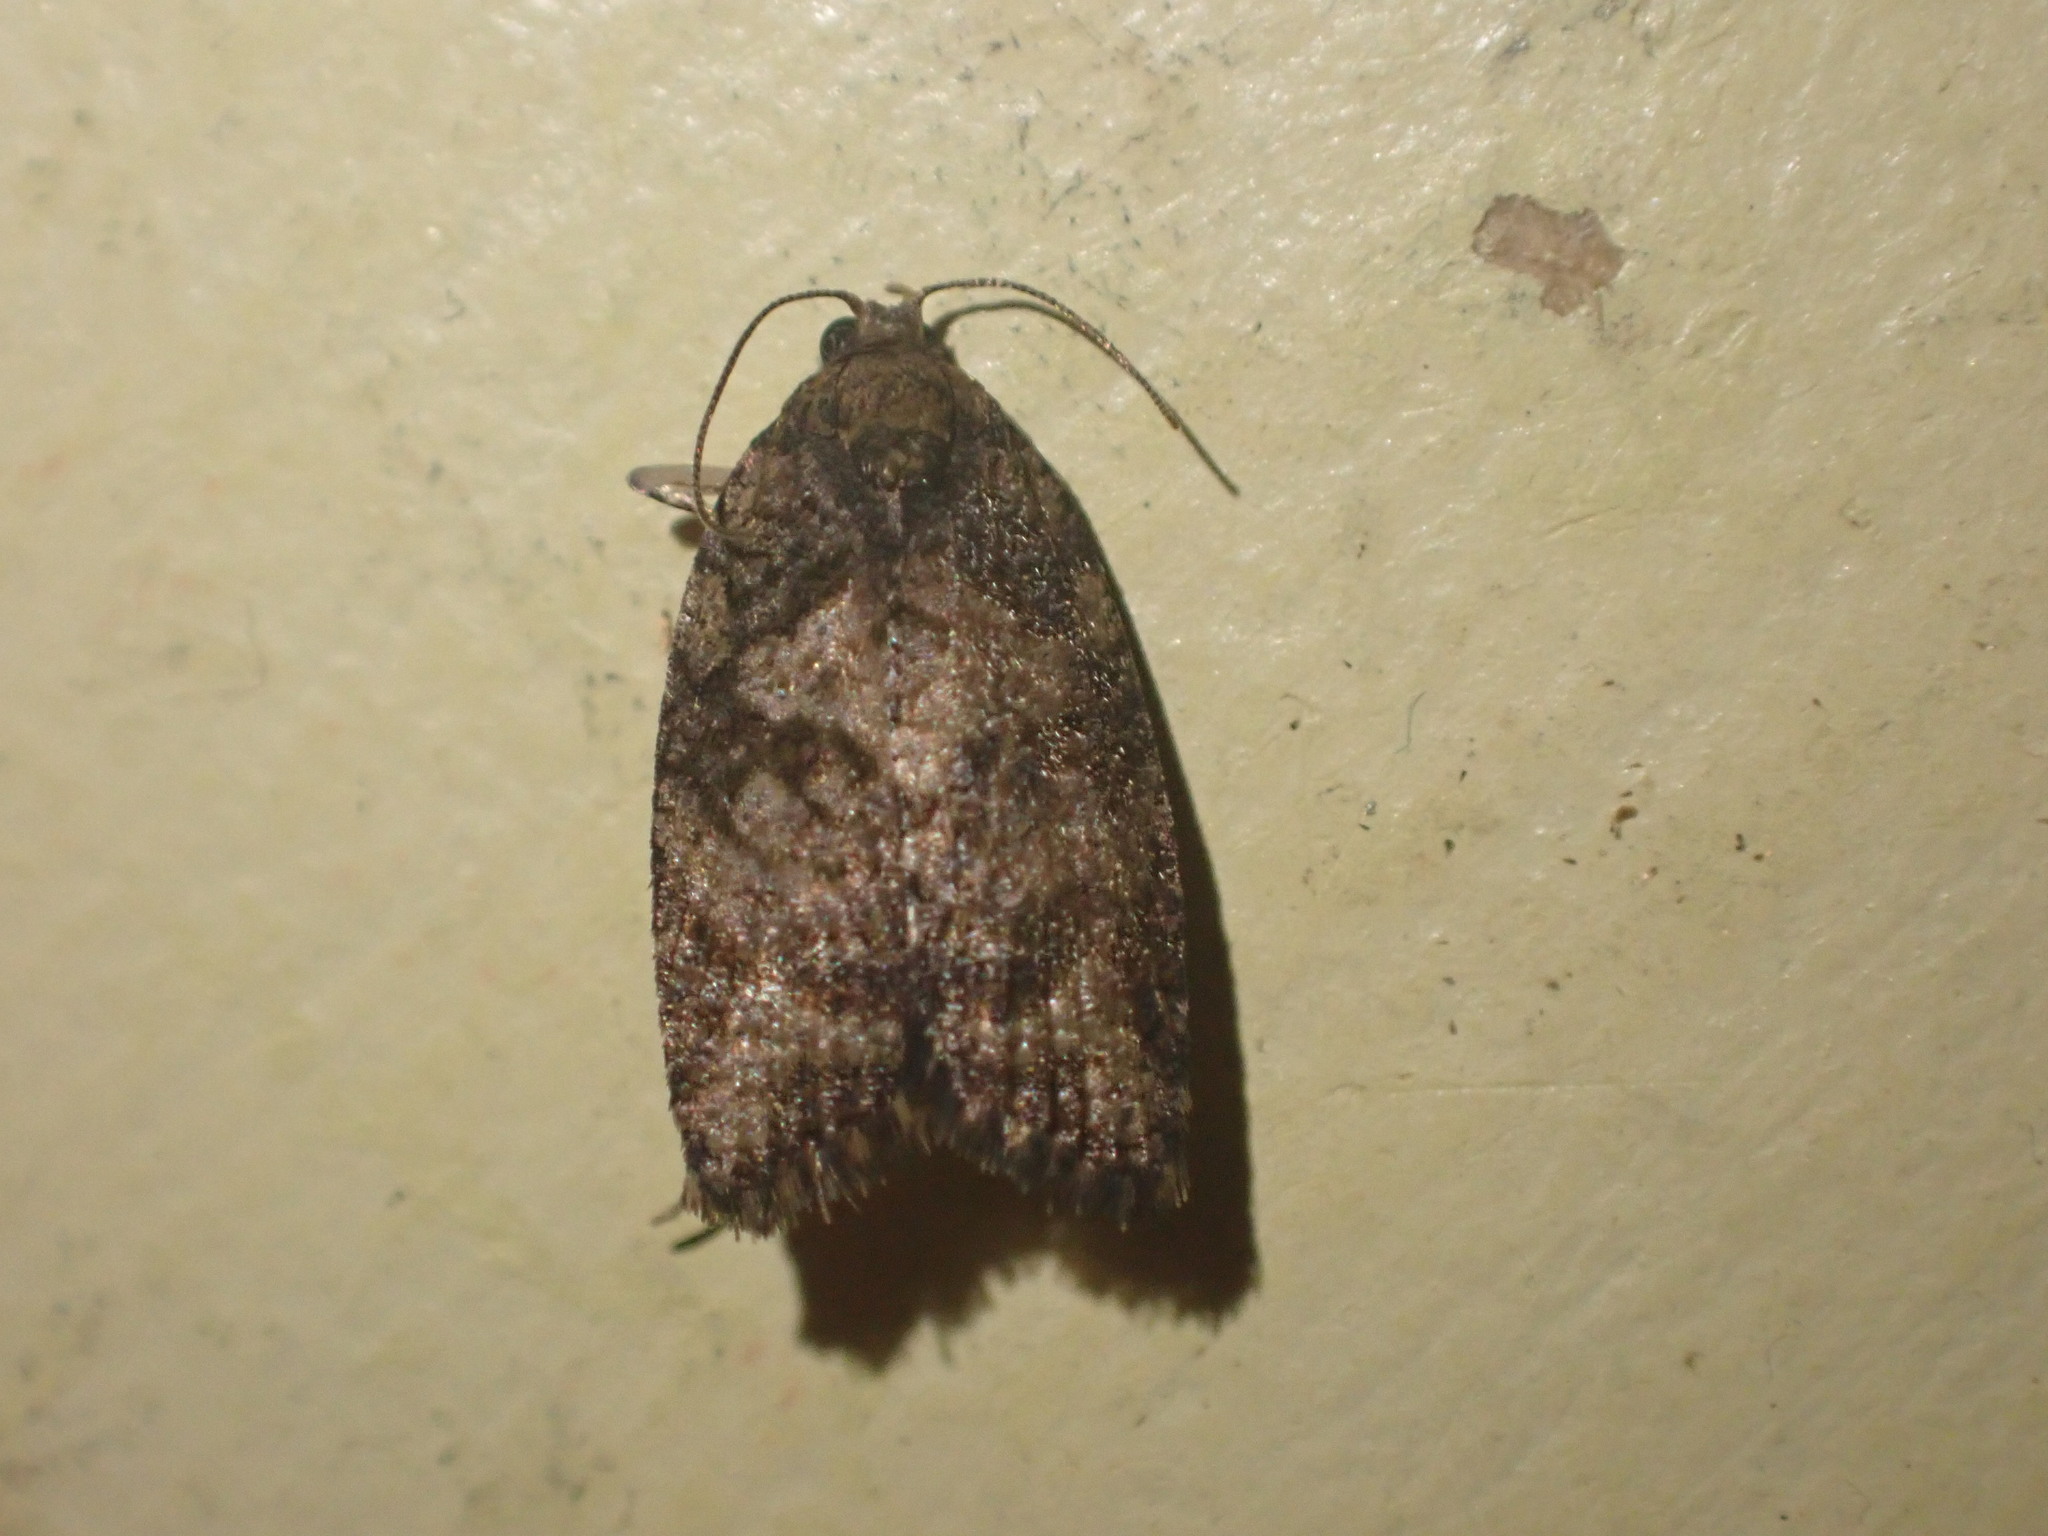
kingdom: Animalia
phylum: Arthropoda
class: Insecta
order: Lepidoptera
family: Tortricidae
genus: Capua
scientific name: Capua intractana
